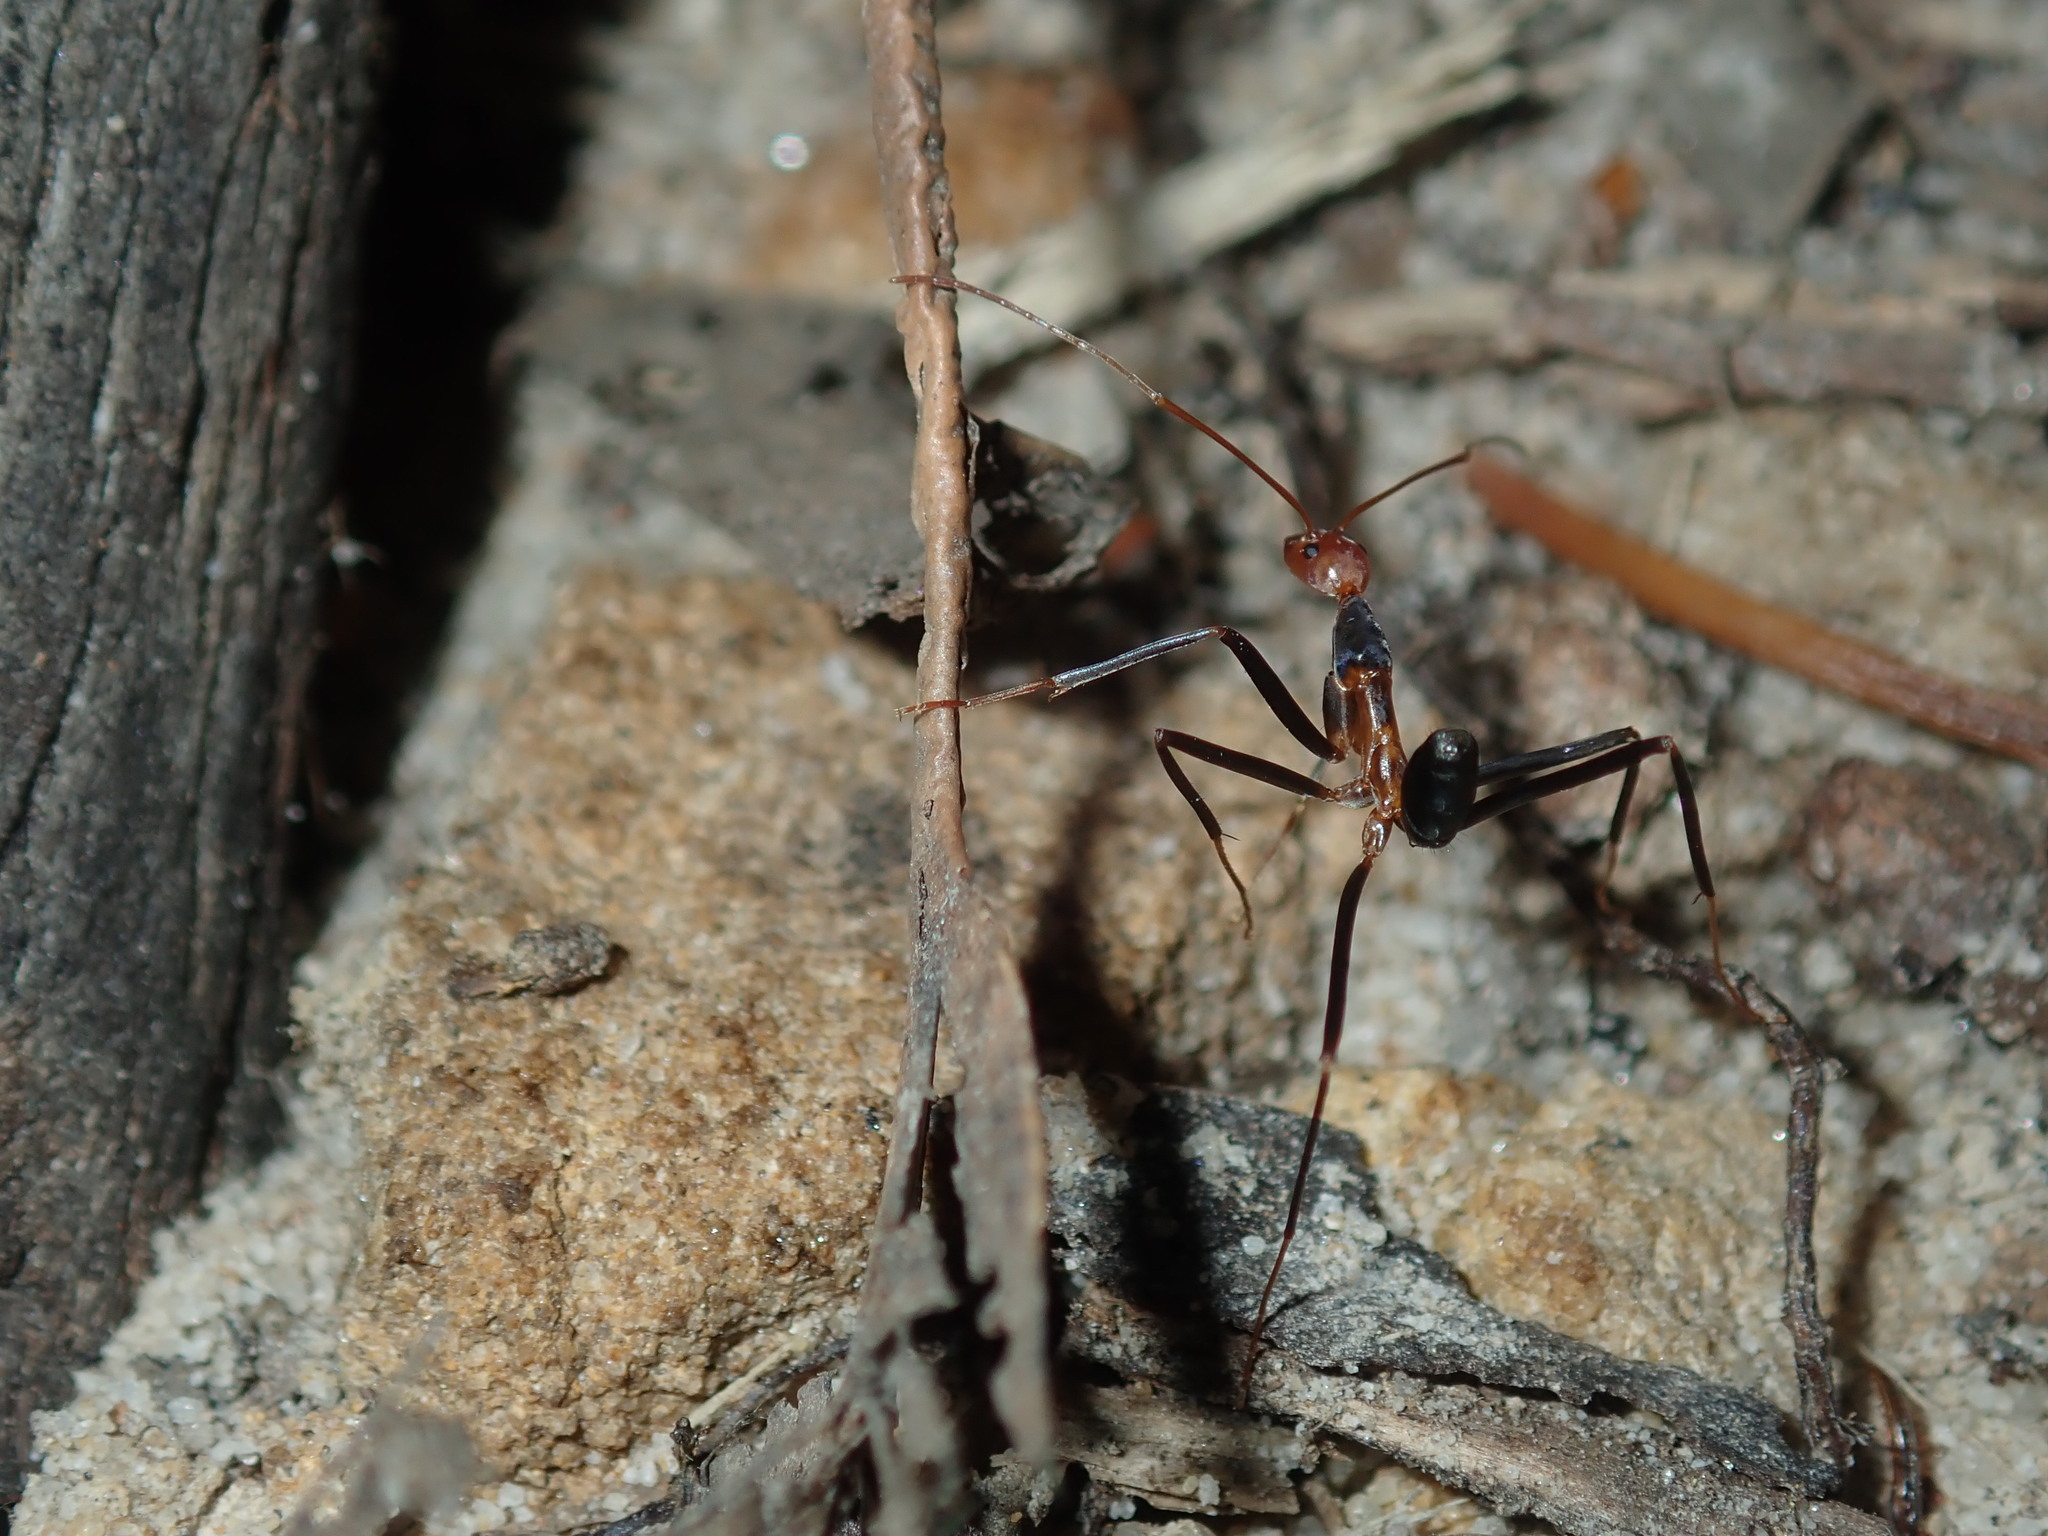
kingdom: Animalia
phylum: Arthropoda
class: Insecta
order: Hymenoptera
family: Formicidae
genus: Leptomyrmex
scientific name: Leptomyrmex wiburdi
